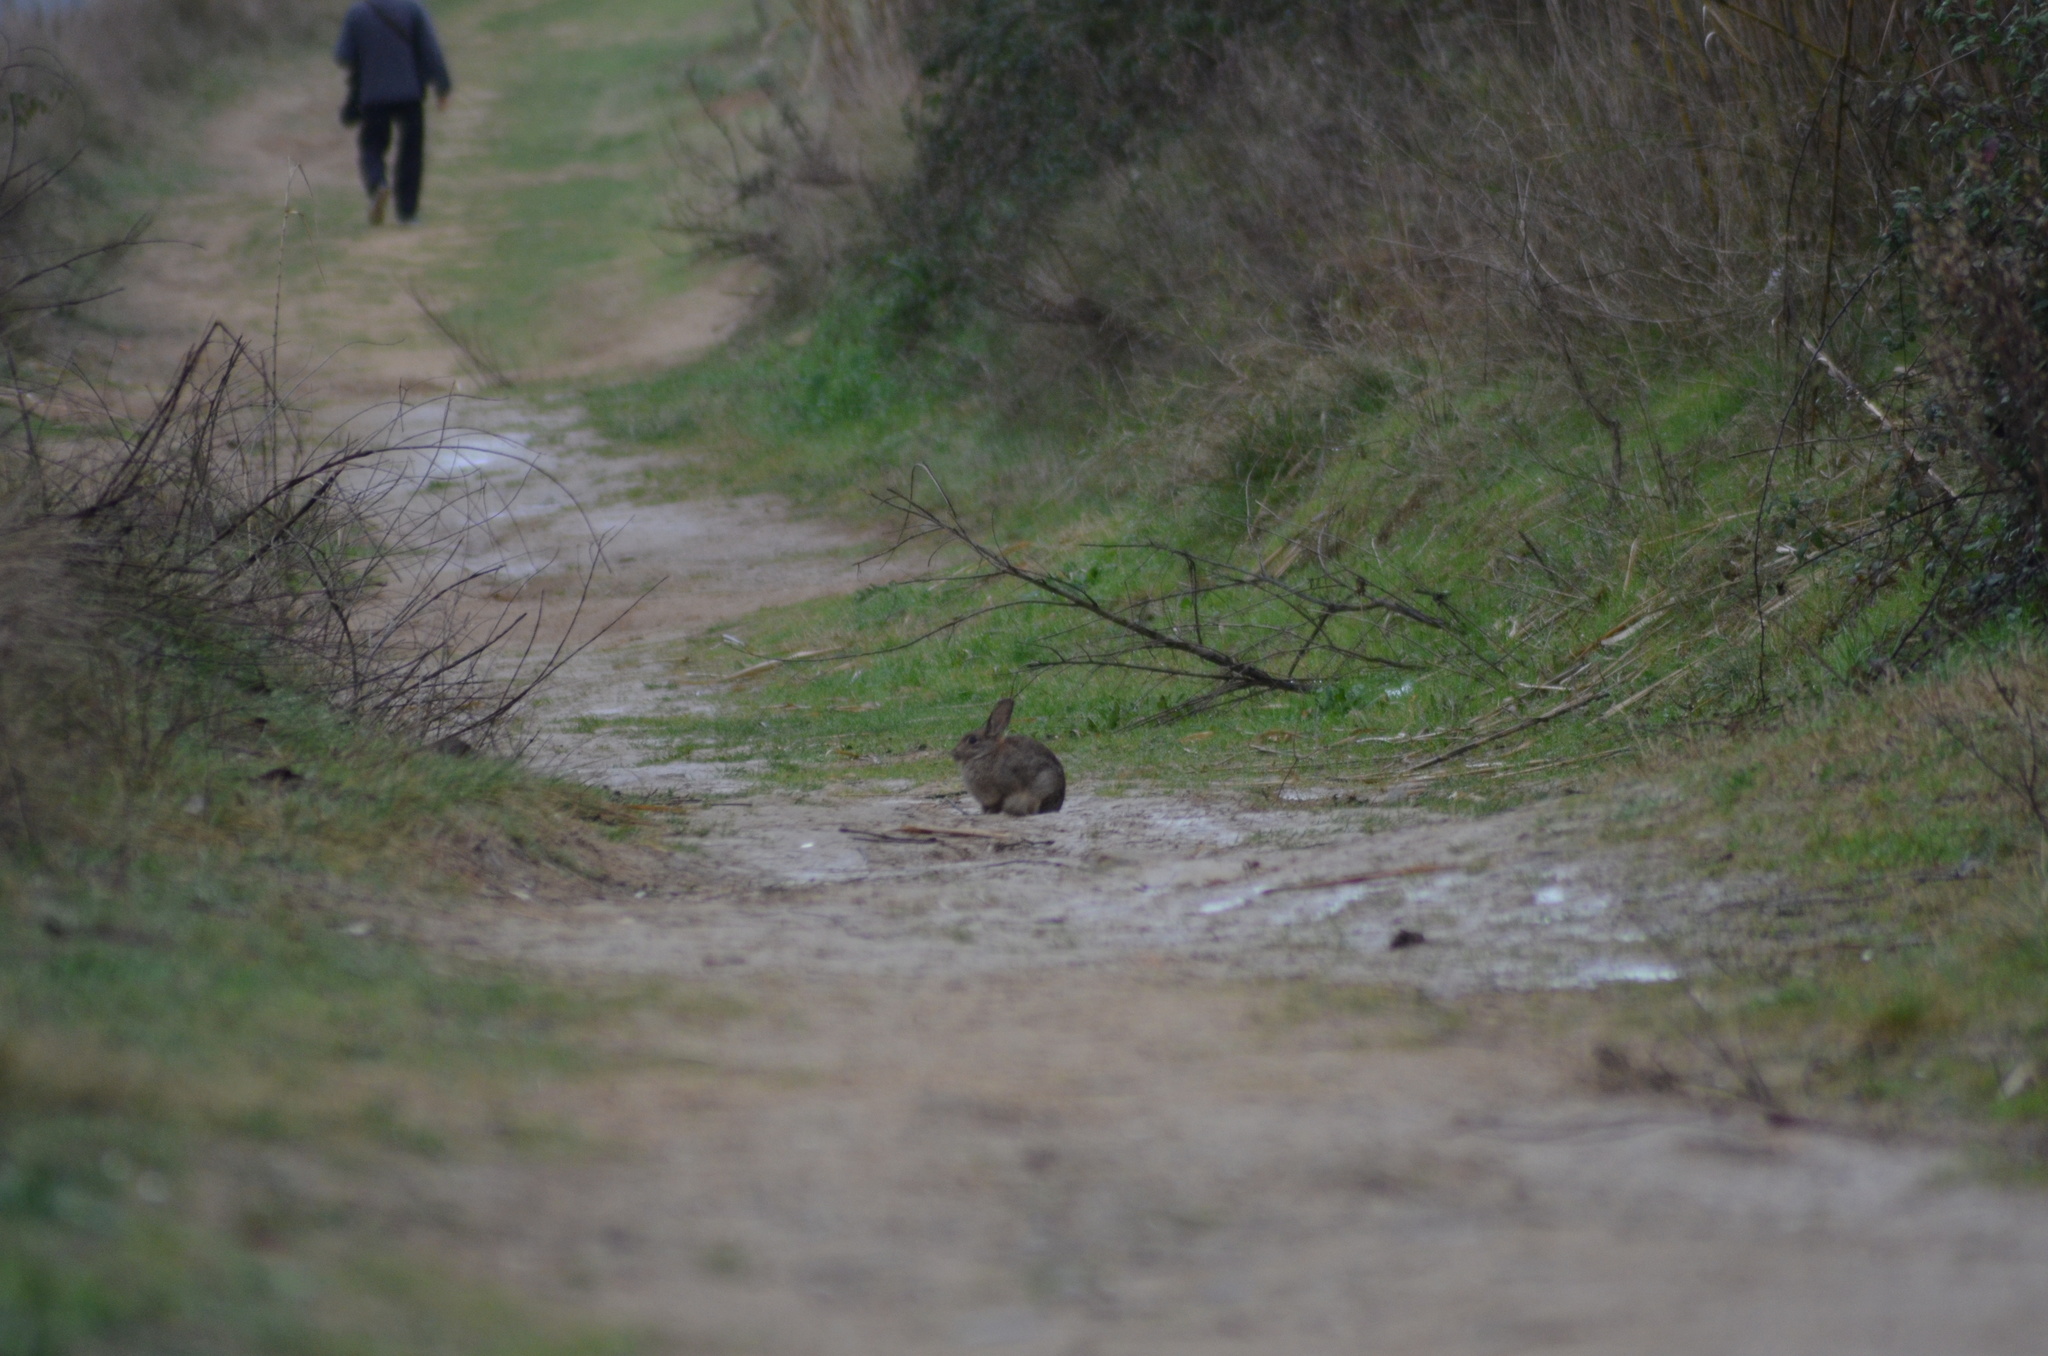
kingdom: Animalia
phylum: Chordata
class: Mammalia
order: Lagomorpha
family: Leporidae
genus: Oryctolagus
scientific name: Oryctolagus cuniculus
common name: European rabbit
